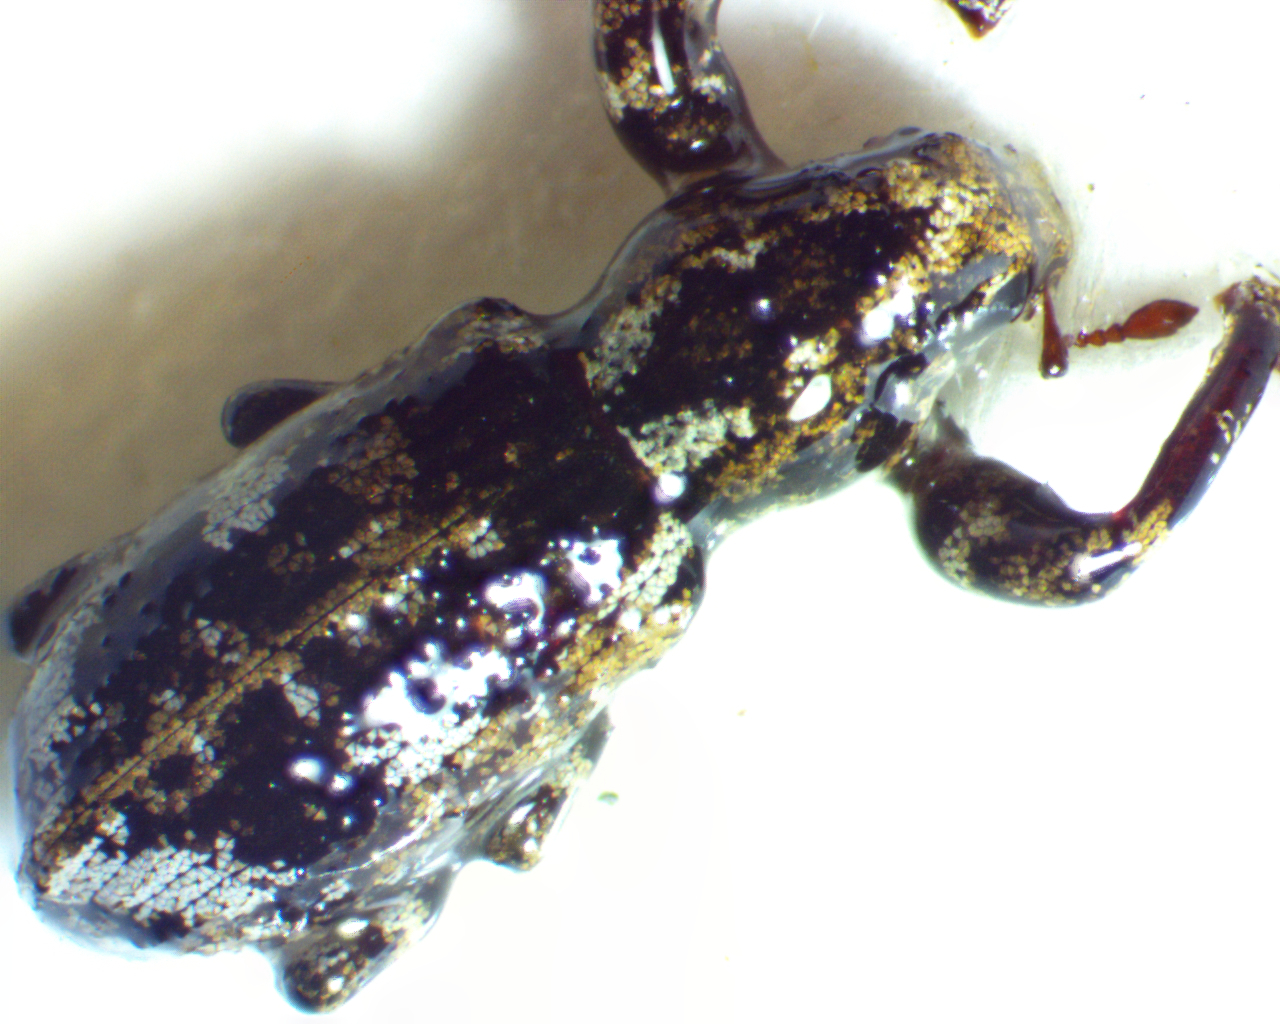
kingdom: Animalia
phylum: Arthropoda
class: Insecta
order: Coleoptera
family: Curculionidae
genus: Pandeleteius
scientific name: Pandeleteius hilaris
